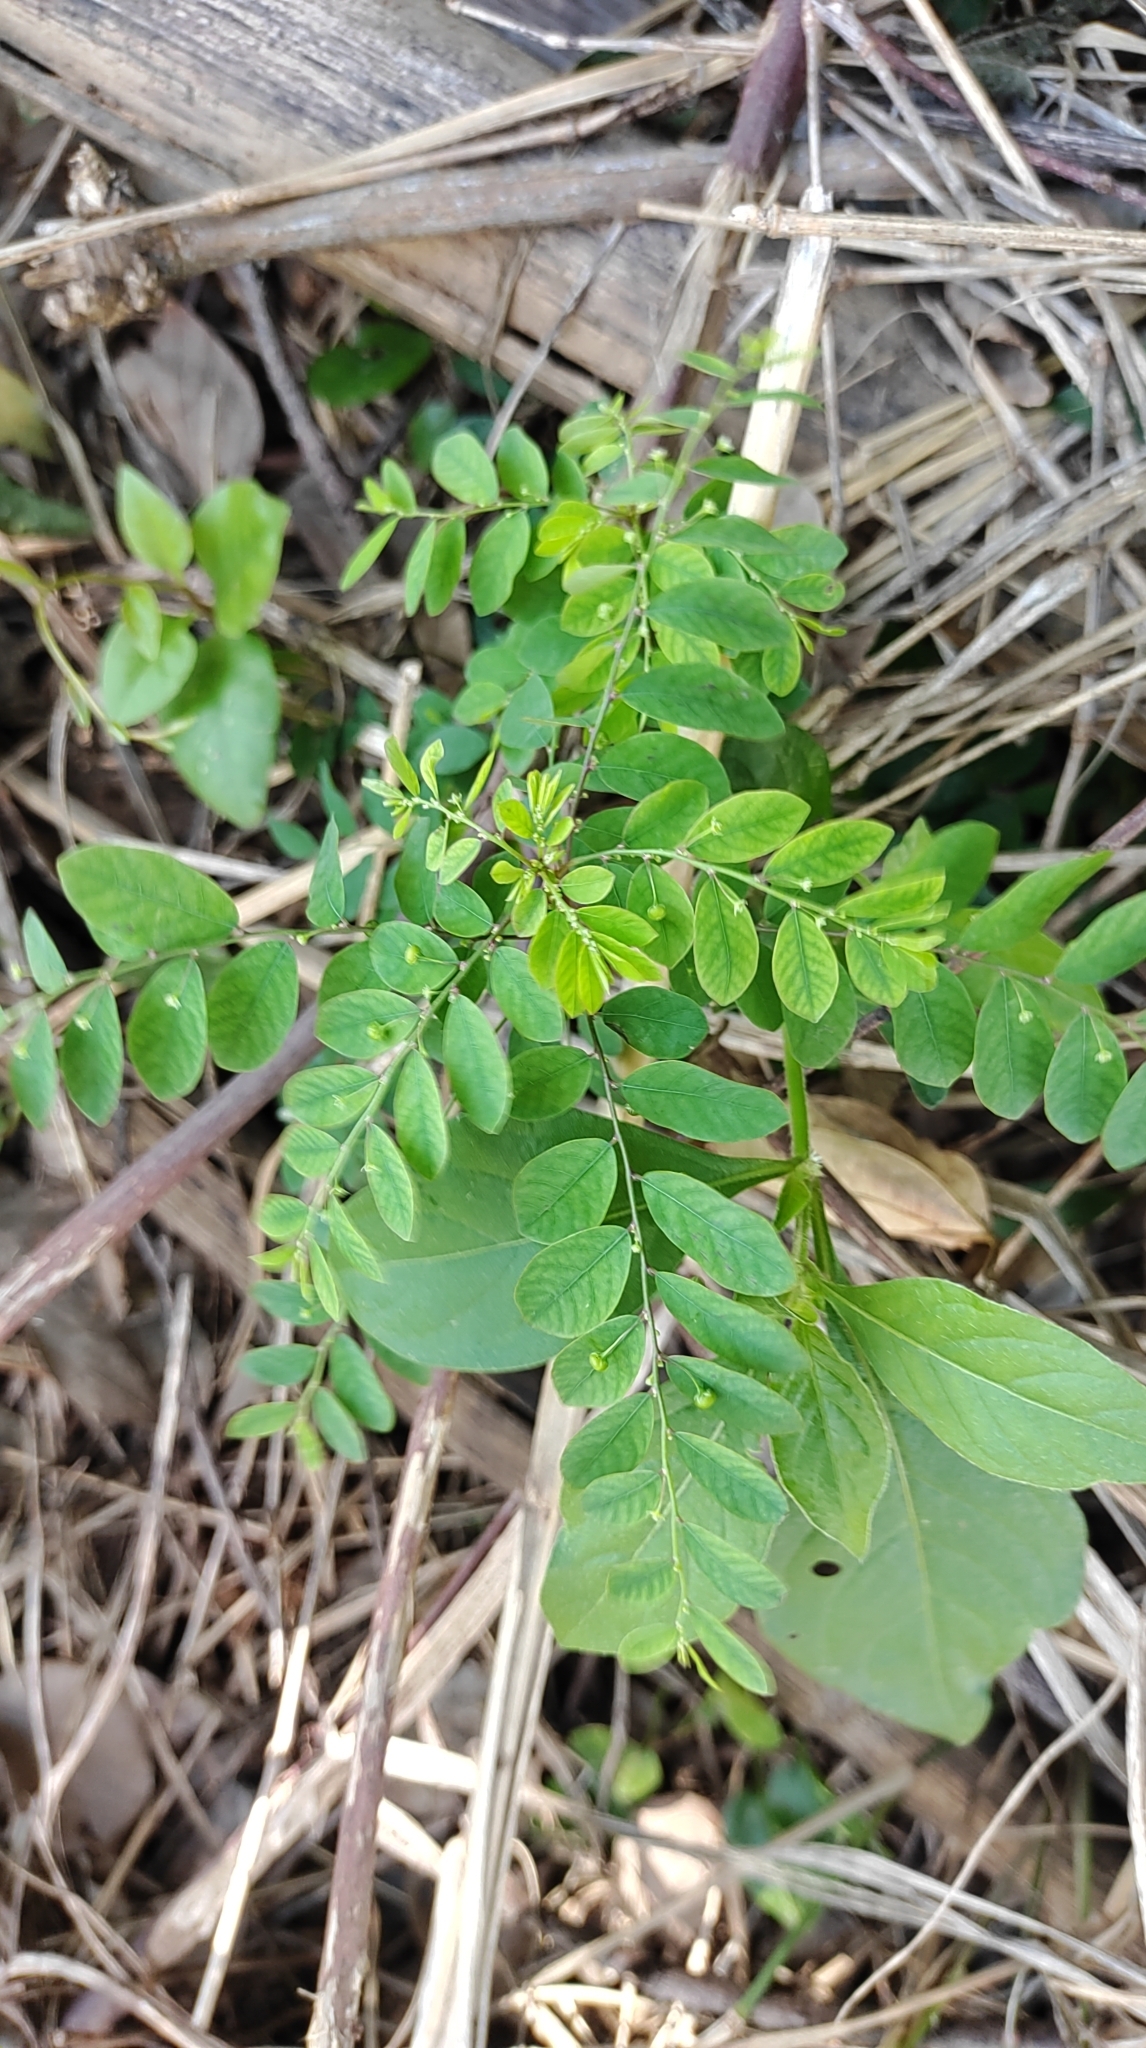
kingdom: Plantae
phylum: Tracheophyta
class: Magnoliopsida
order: Malpighiales
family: Phyllanthaceae
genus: Phyllanthus
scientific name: Phyllanthus tenellus
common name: Mascarene island leaf-flower
